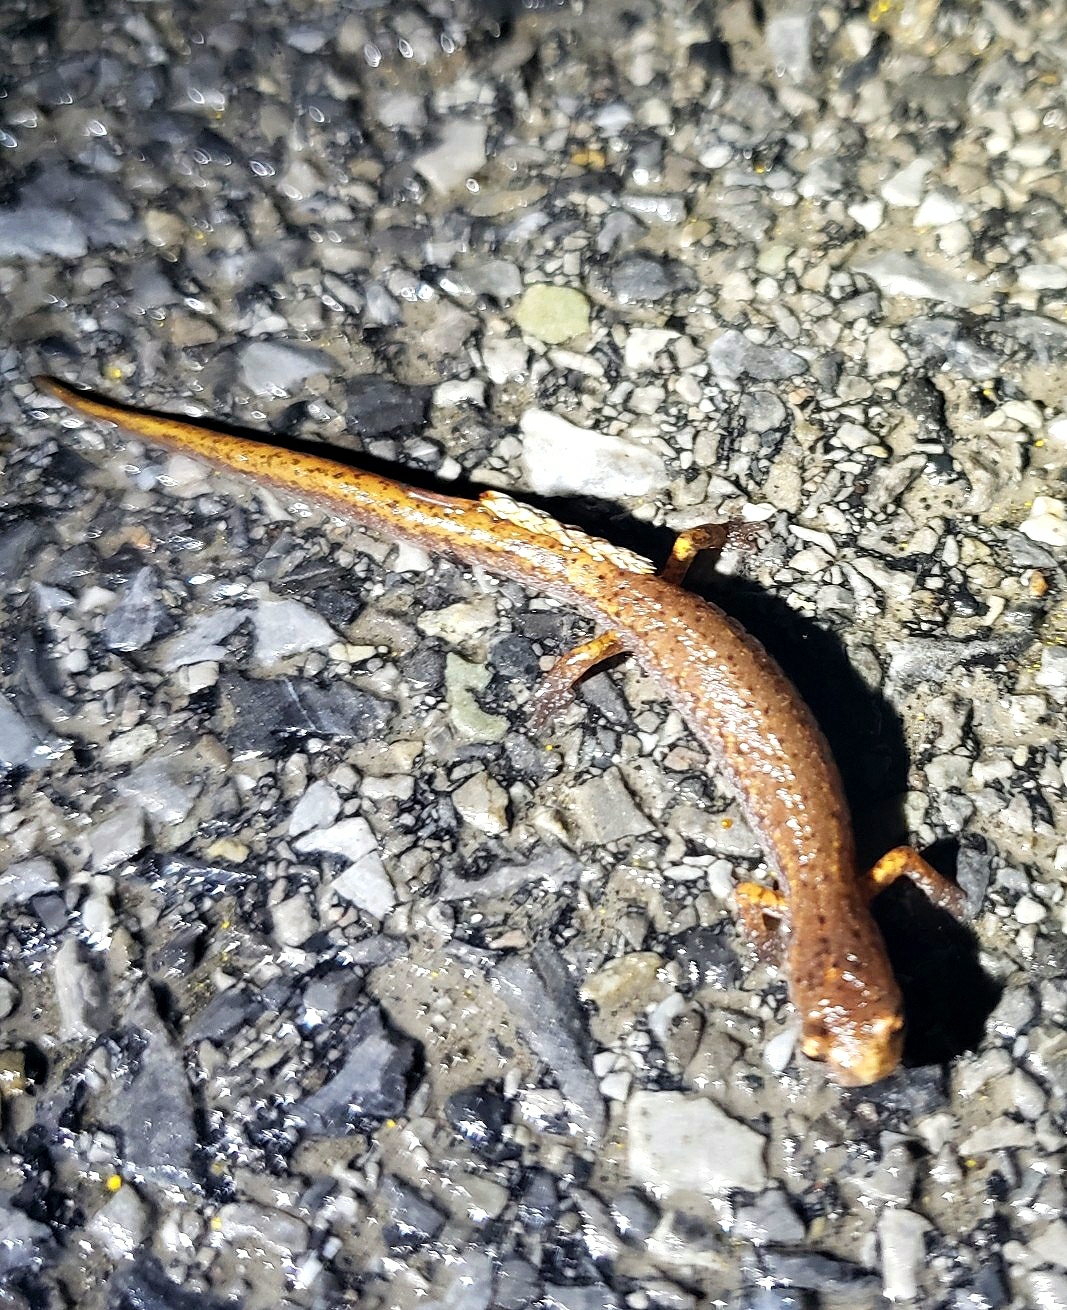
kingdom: Animalia
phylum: Chordata
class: Amphibia
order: Caudata
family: Plethodontidae
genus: Hemidactylium
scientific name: Hemidactylium scutatum
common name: Four-toed salamander
